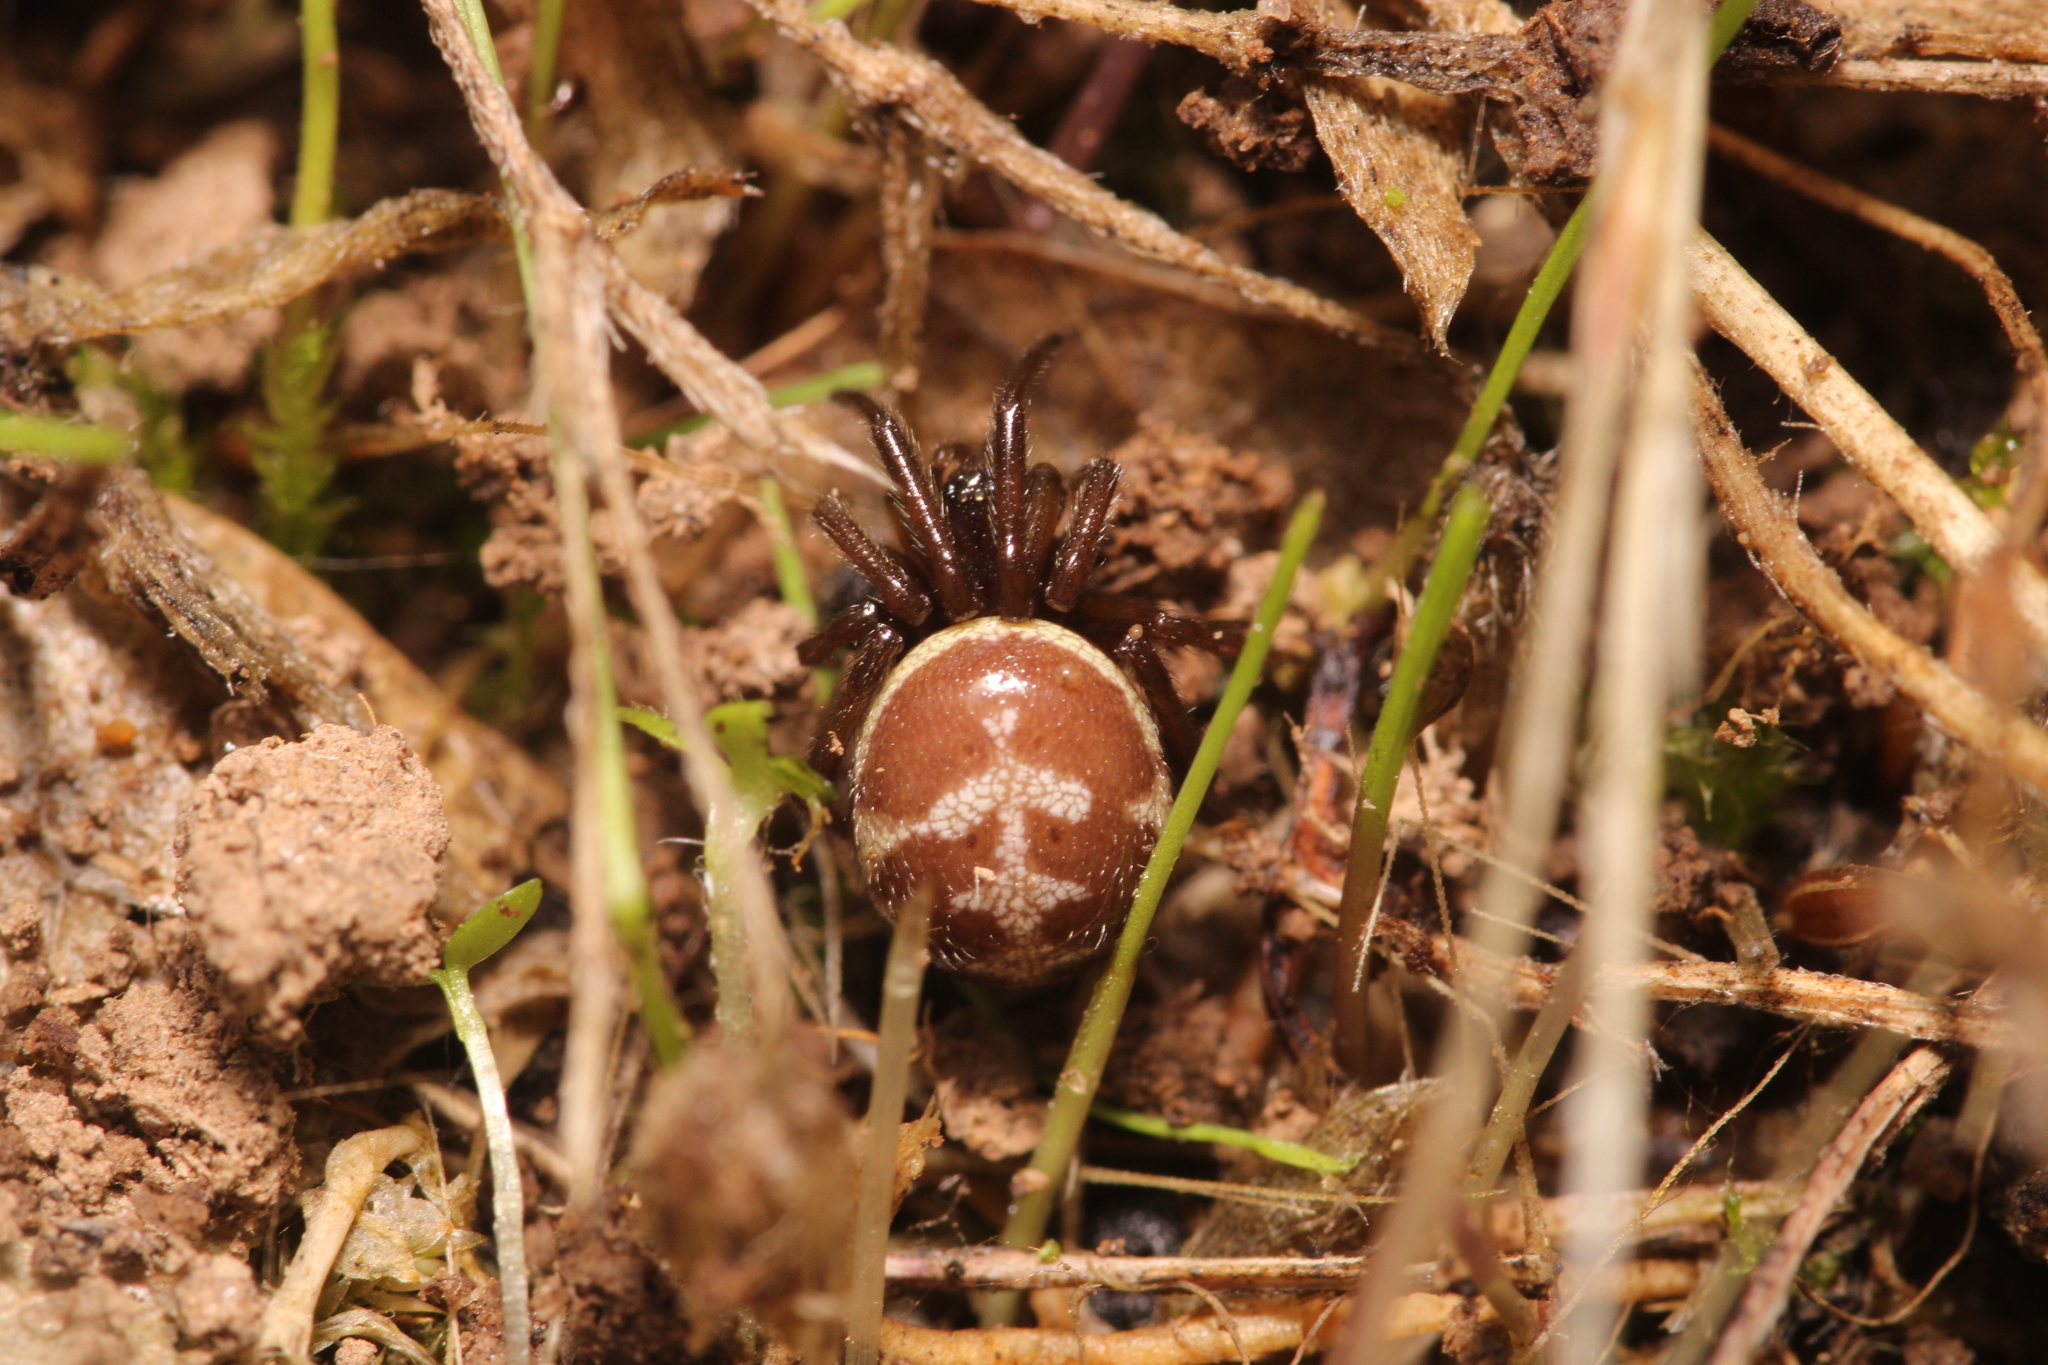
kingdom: Animalia
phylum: Arthropoda
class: Arachnida
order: Araneae
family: Theridiidae
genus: Steatoda
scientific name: Steatoda paykulliana
